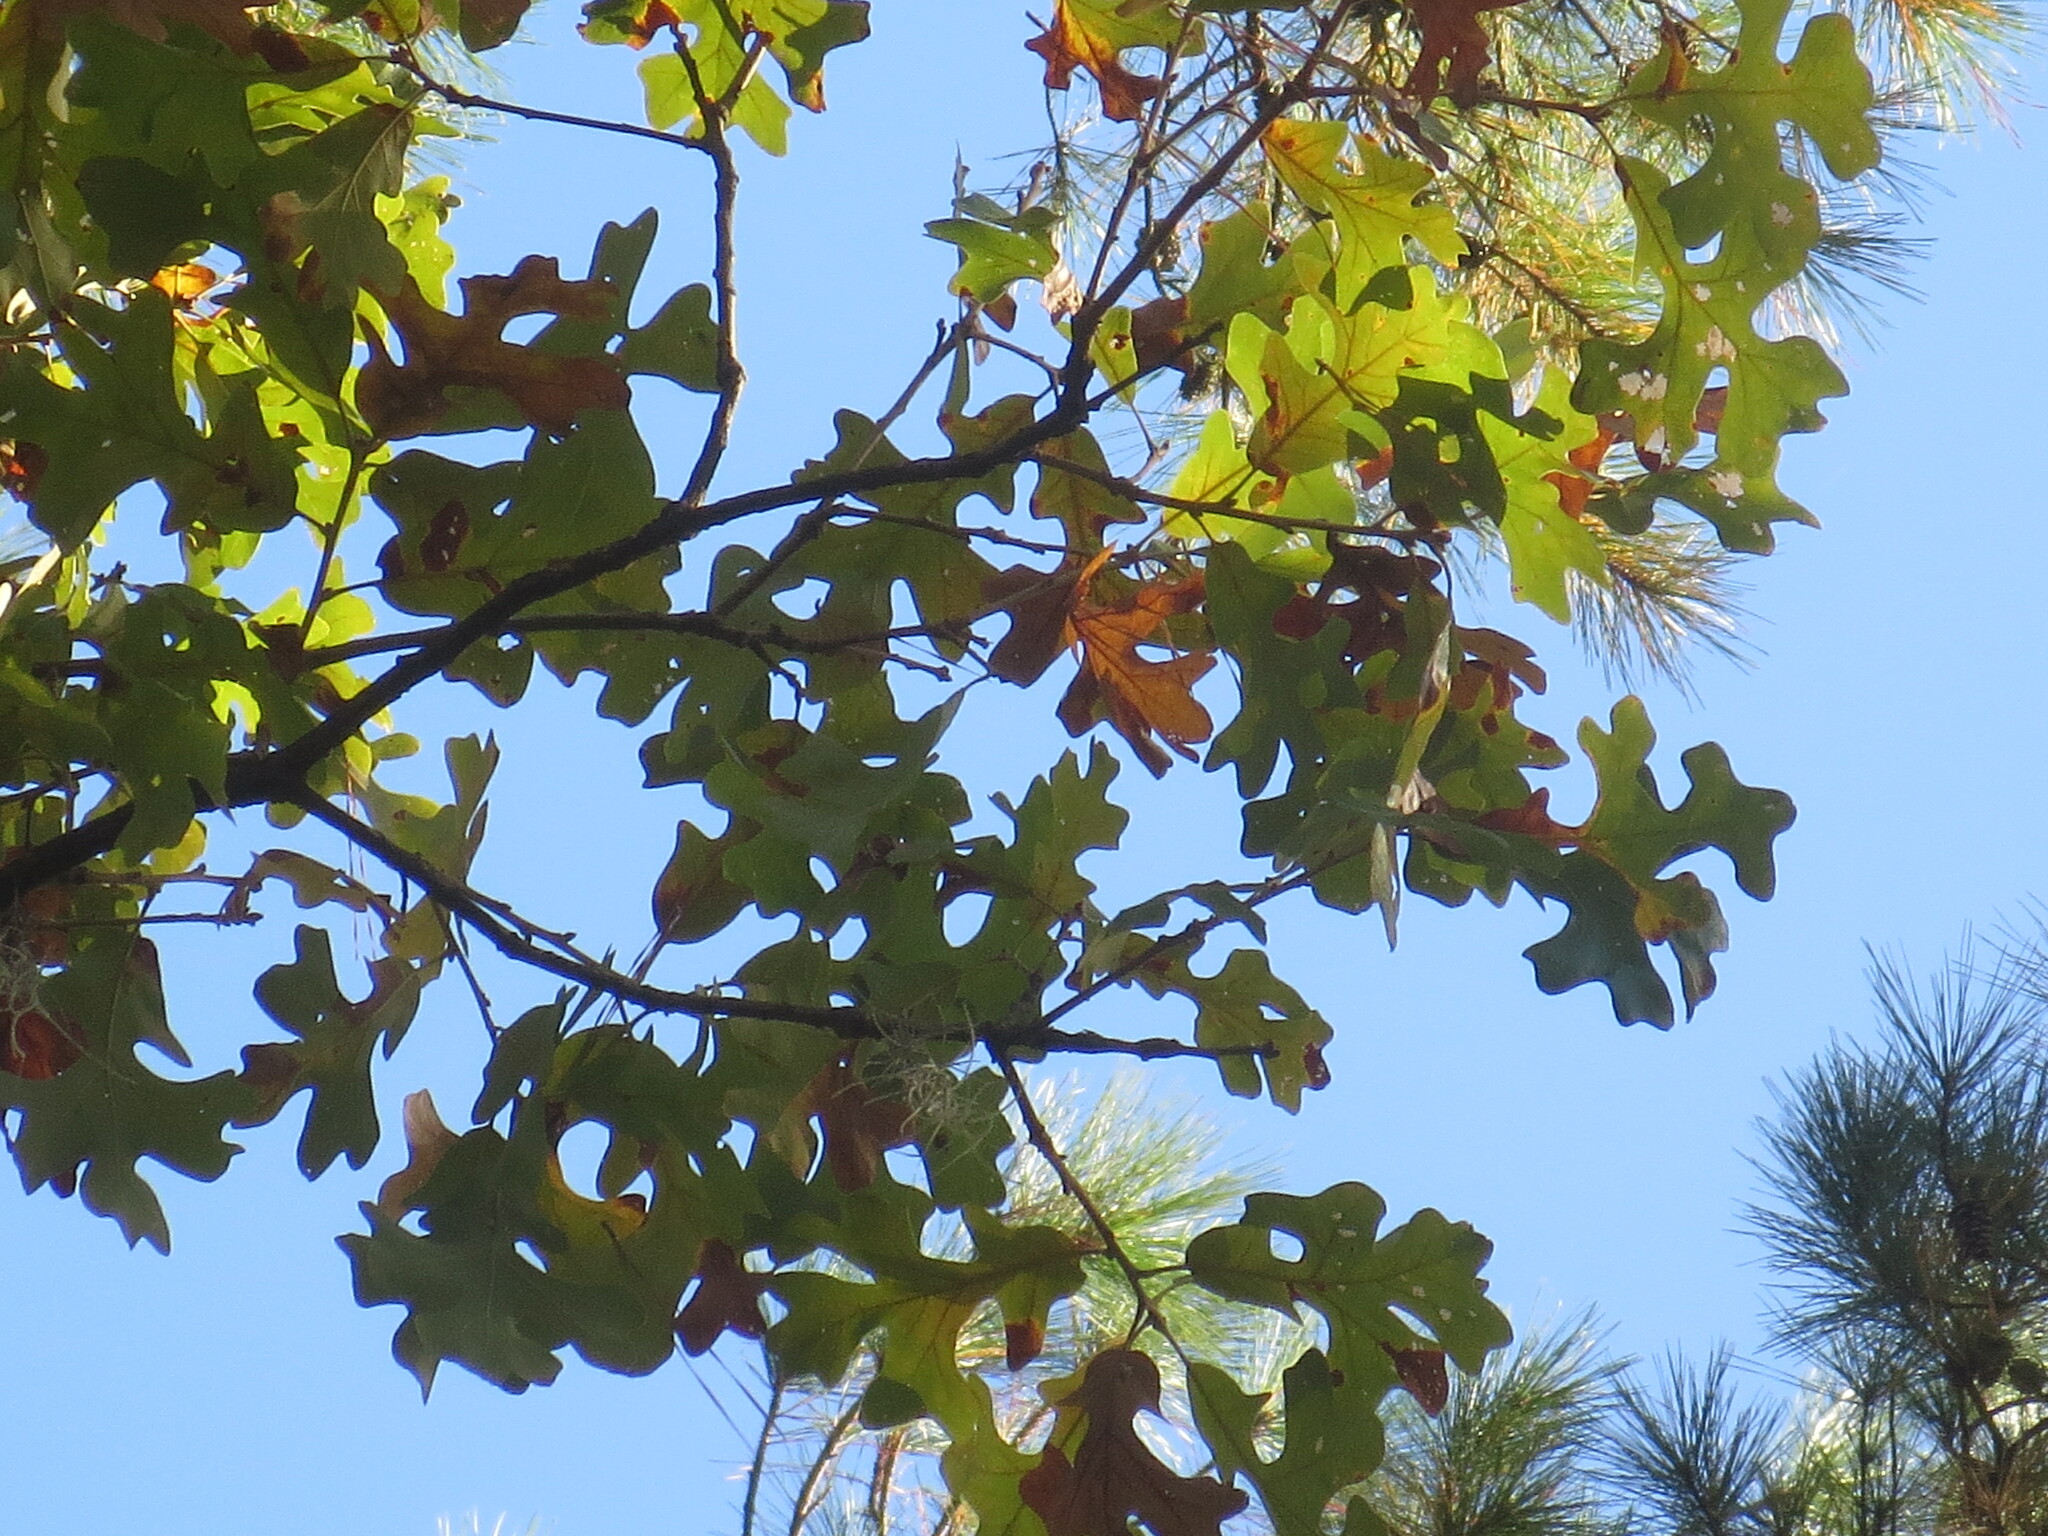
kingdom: Plantae
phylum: Tracheophyta
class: Magnoliopsida
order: Fagales
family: Fagaceae
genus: Quercus
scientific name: Quercus stellata
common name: Post oak
